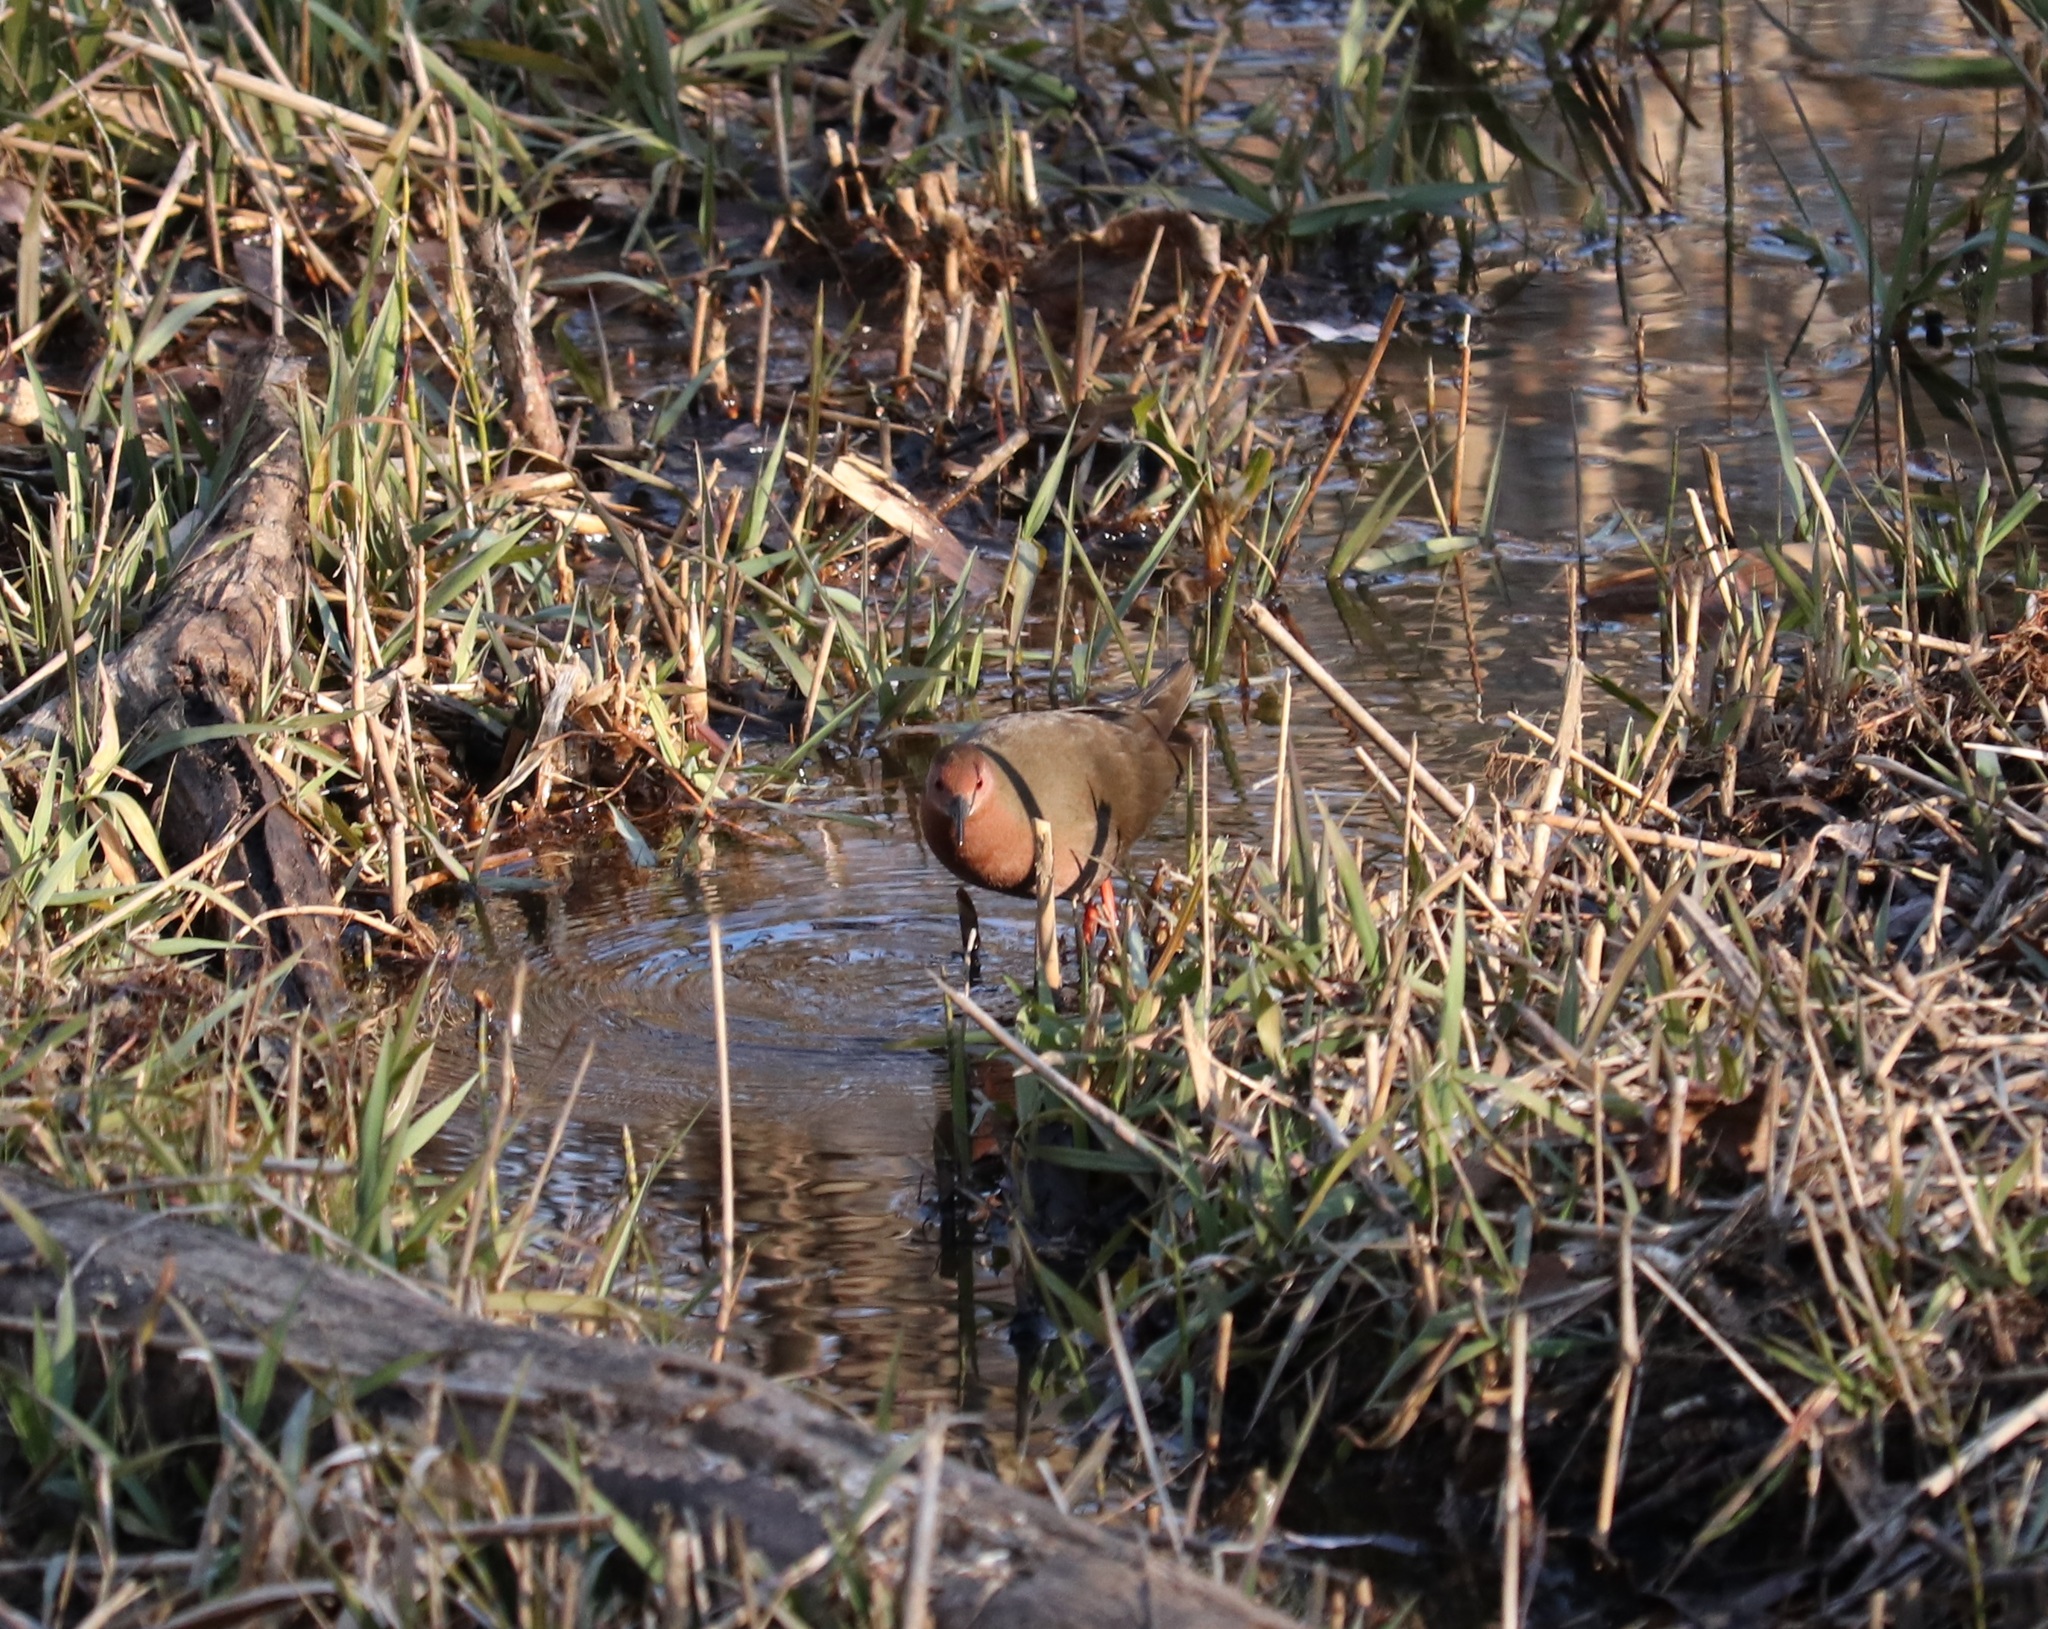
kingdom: Animalia
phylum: Chordata
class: Aves
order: Gruiformes
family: Rallidae
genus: Porzana
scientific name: Porzana fusca
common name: Ruddy-breasted crake
